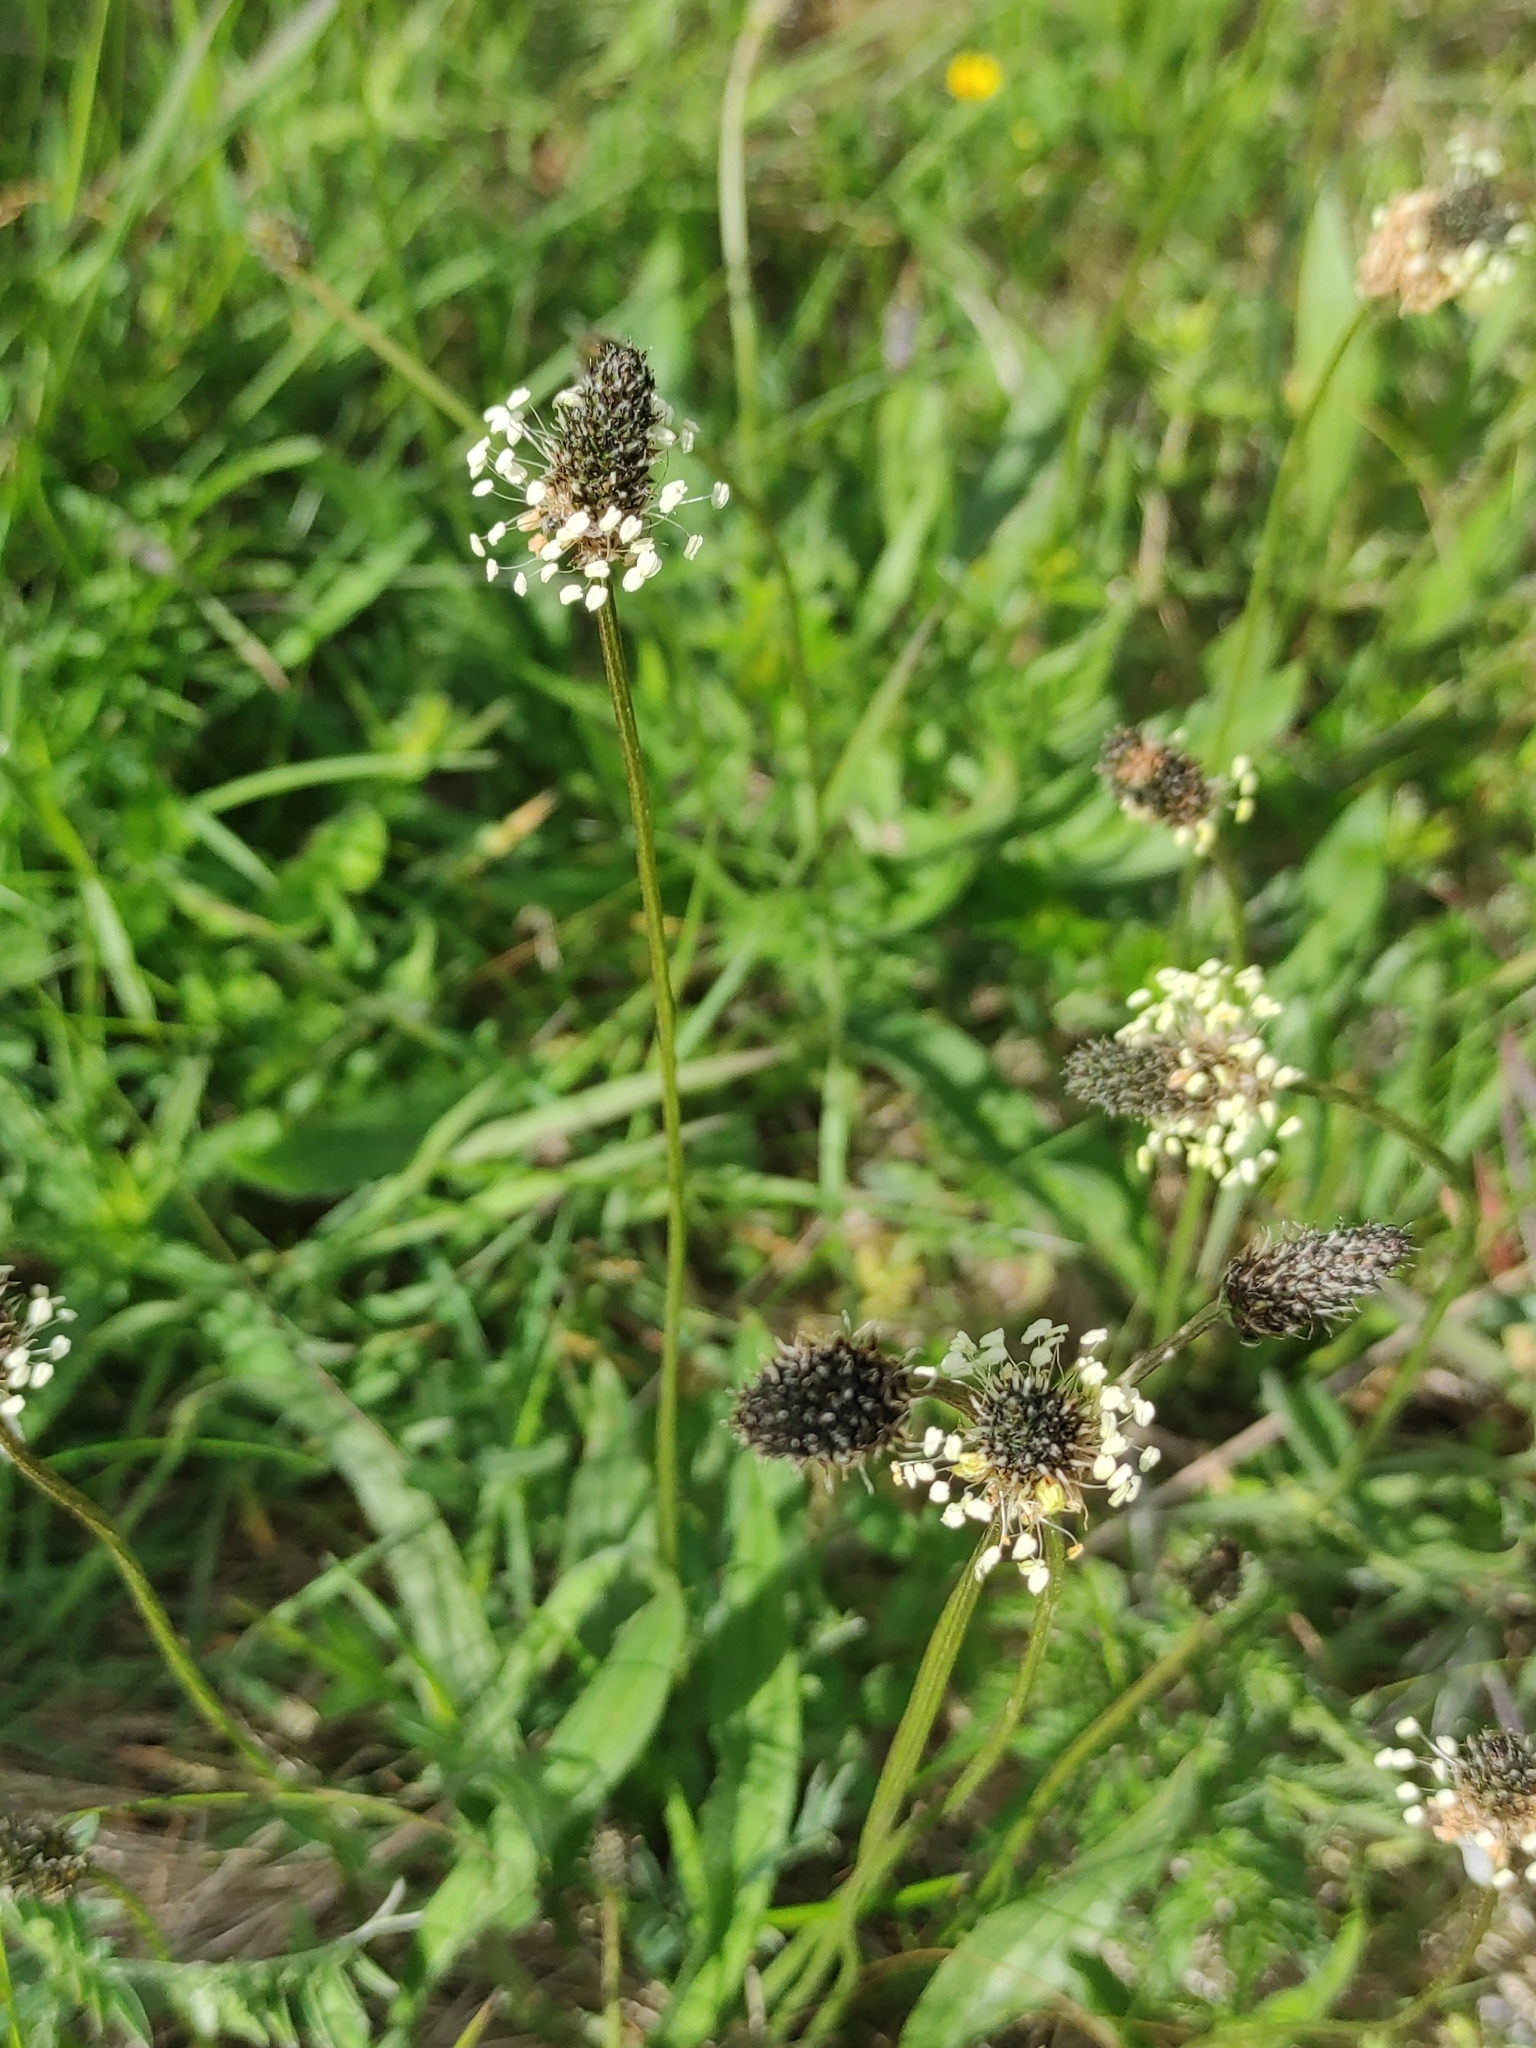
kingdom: Plantae
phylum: Tracheophyta
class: Magnoliopsida
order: Lamiales
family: Plantaginaceae
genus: Plantago
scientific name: Plantago lanceolata
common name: Ribwort plantain
